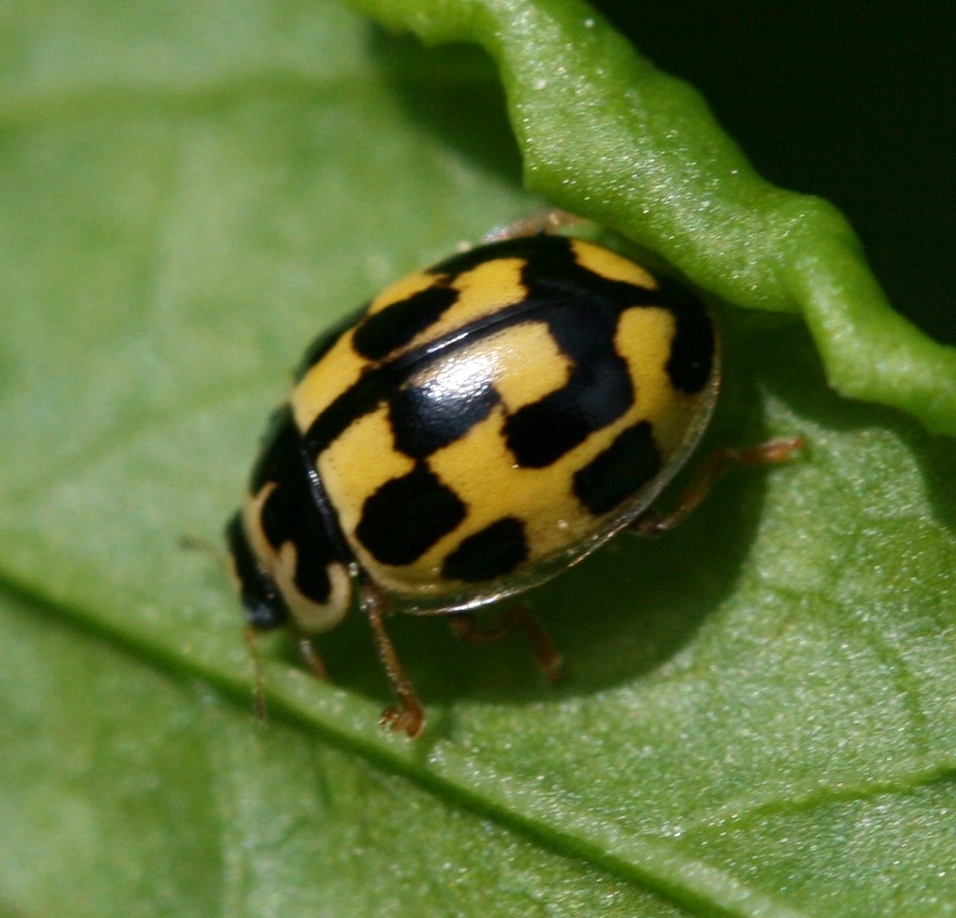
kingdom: Animalia
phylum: Arthropoda
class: Insecta
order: Coleoptera
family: Coccinellidae
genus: Propylaea
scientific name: Propylaea quatuordecimpunctata
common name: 14-spotted ladybird beetle
